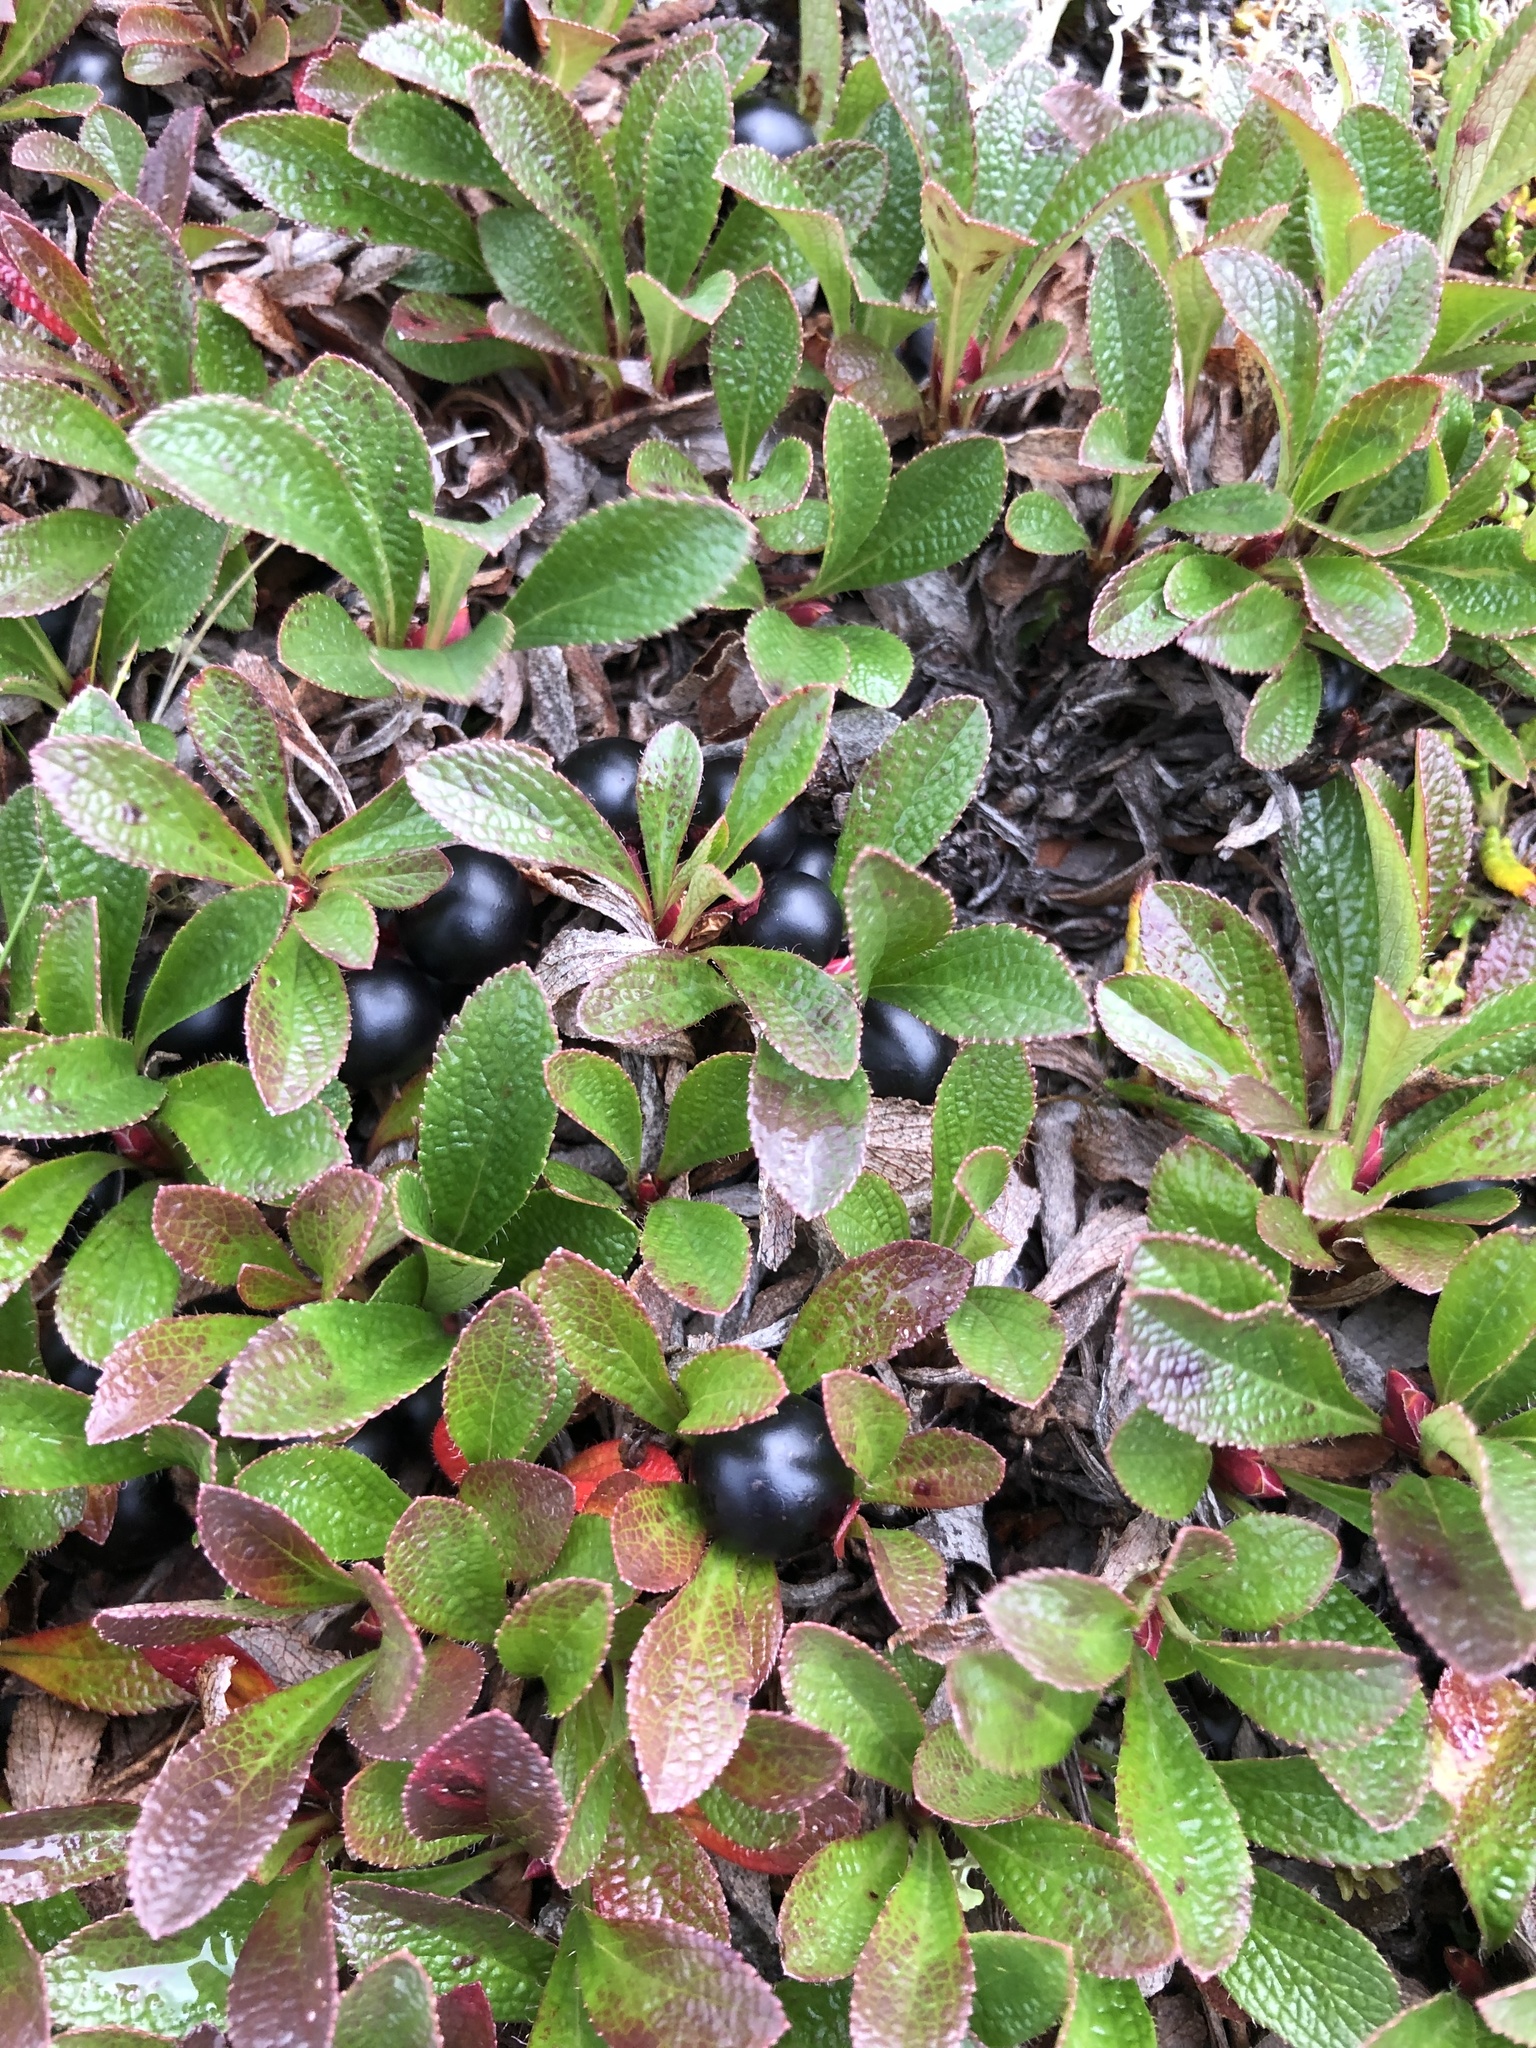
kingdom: Plantae
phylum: Tracheophyta
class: Magnoliopsida
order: Ericales
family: Ericaceae
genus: Arctostaphylos
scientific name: Arctostaphylos alpinus
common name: Alpine bearberry
